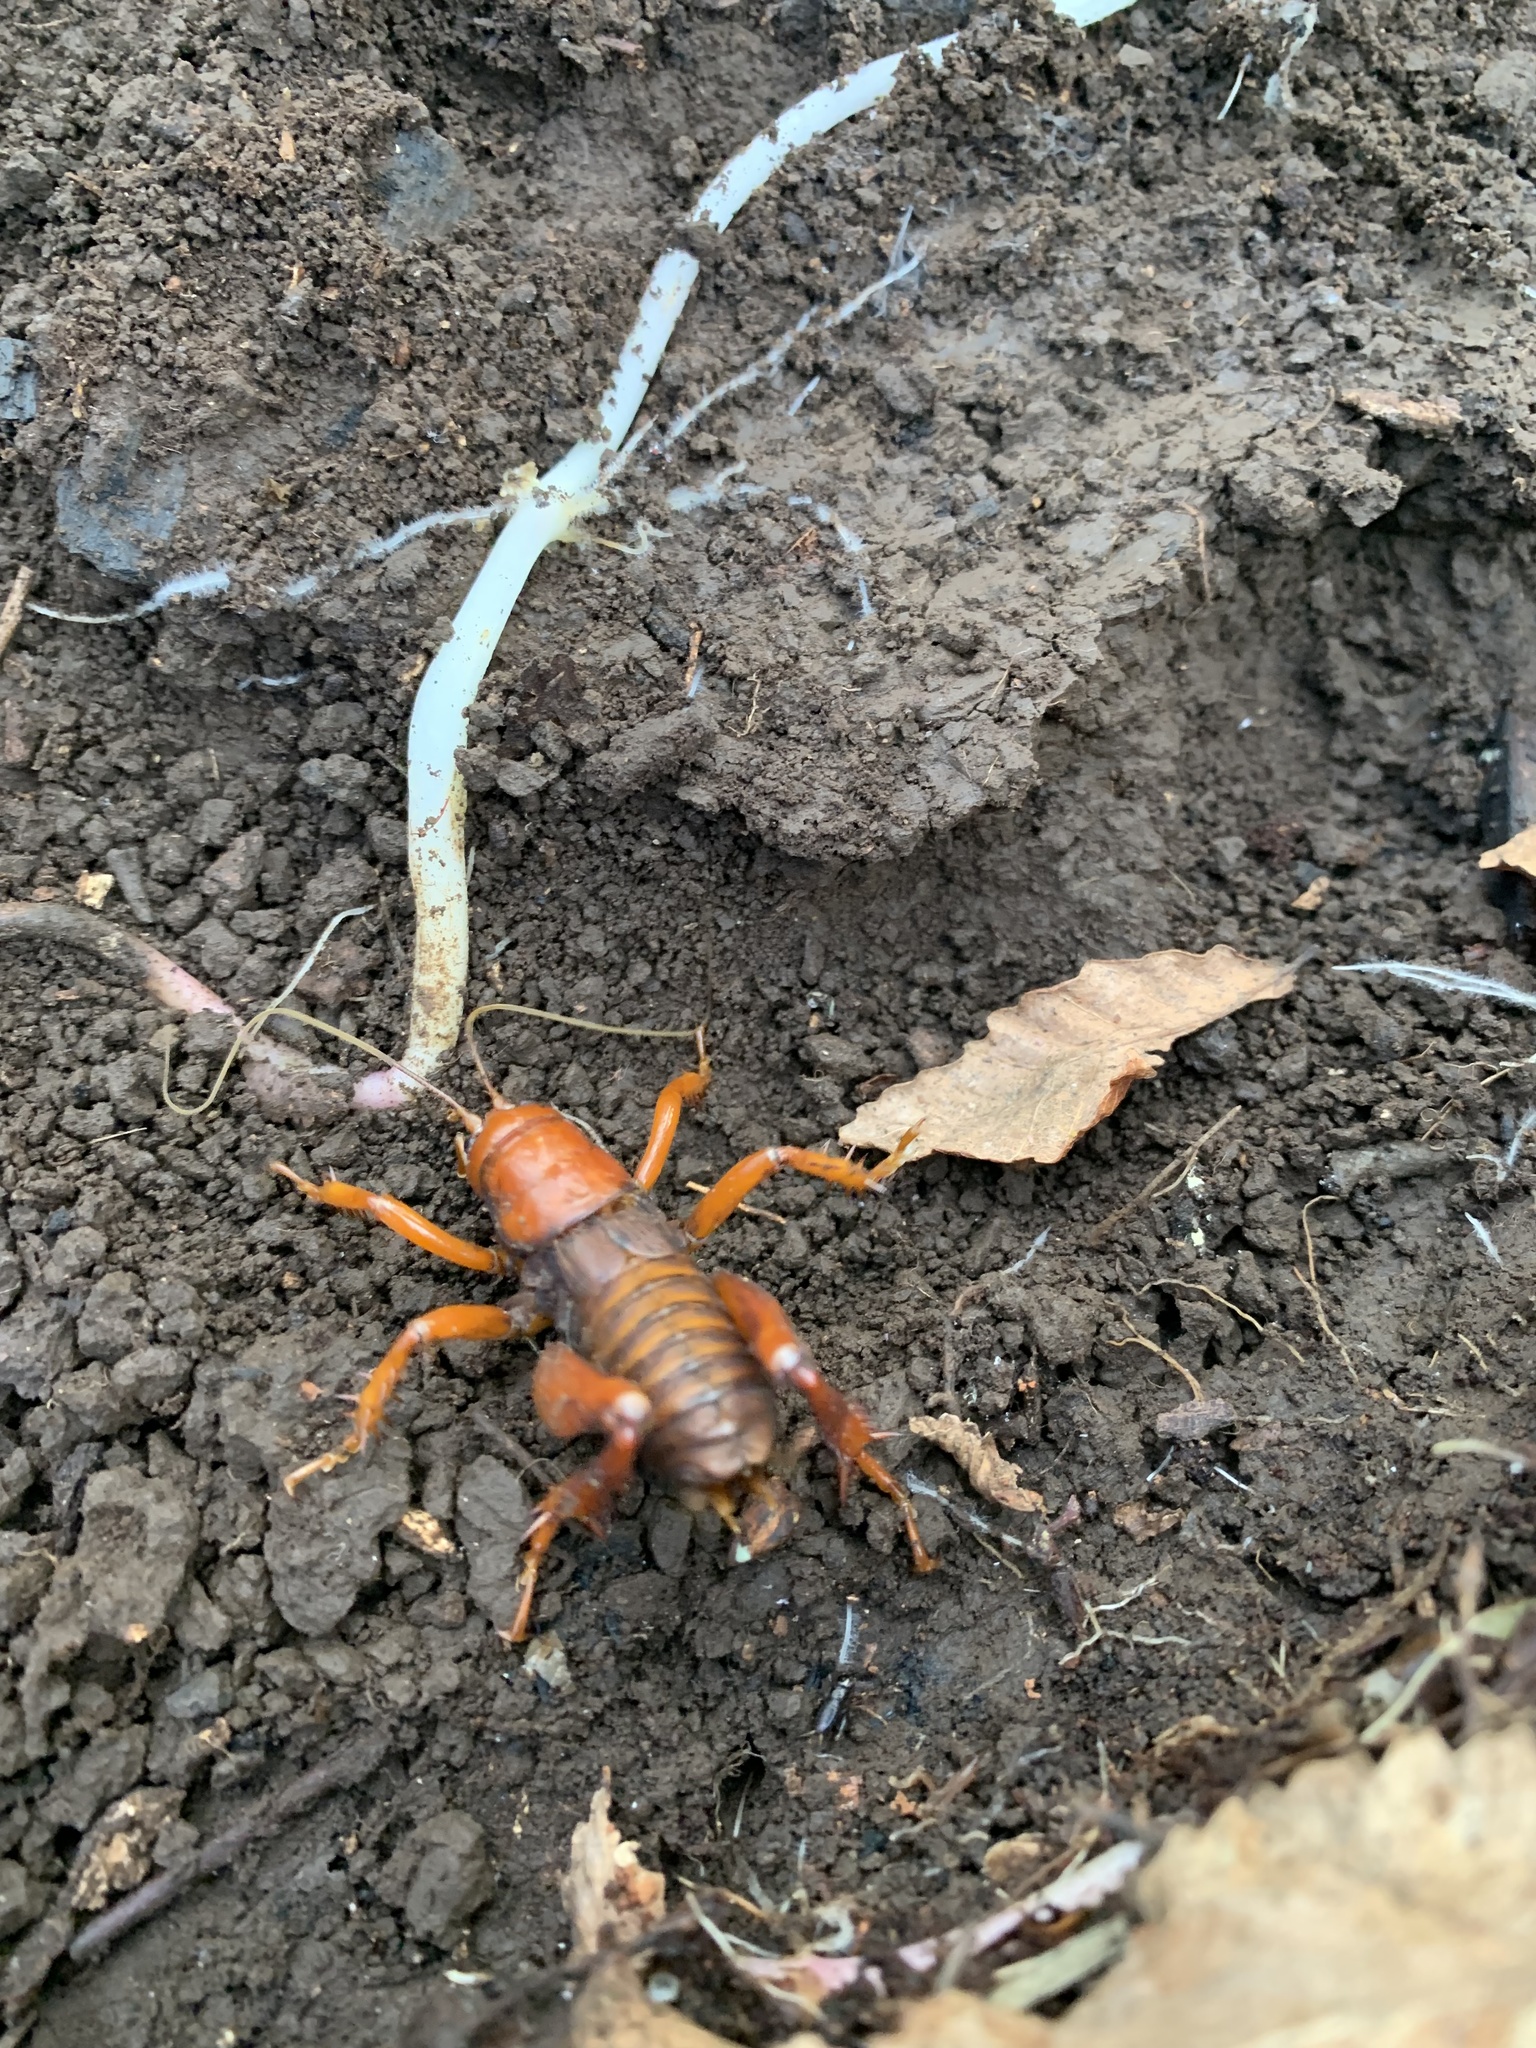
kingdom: Animalia
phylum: Arthropoda
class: Insecta
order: Orthoptera
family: Anostostomatidae
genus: Cratomelus
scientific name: Cratomelus armatus
